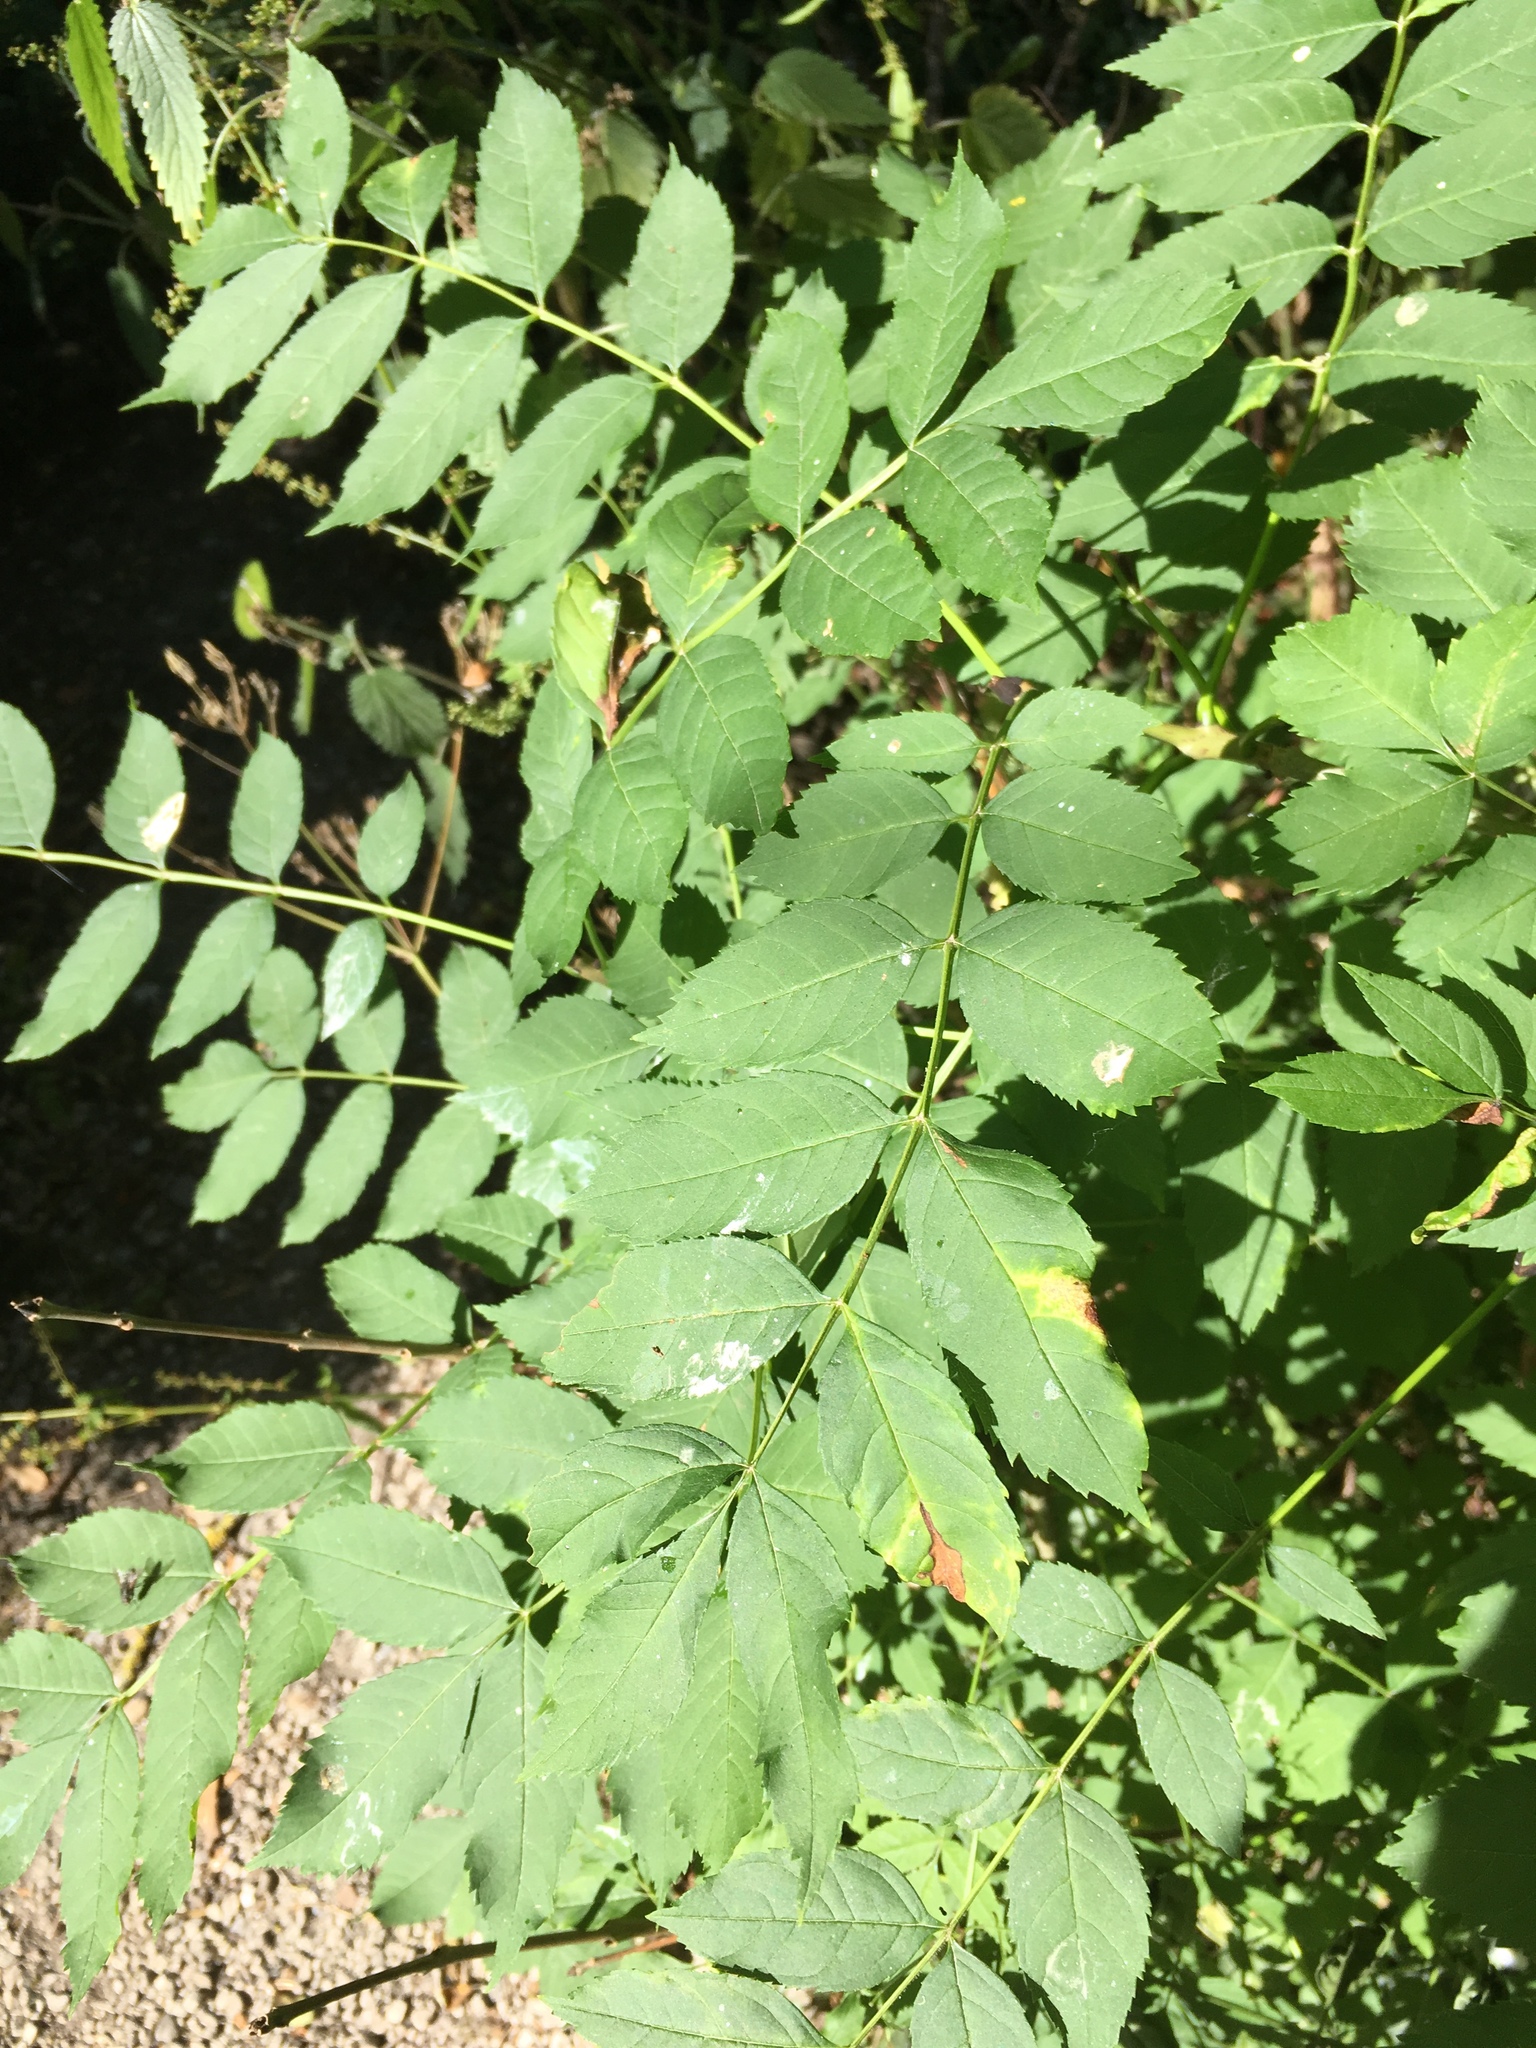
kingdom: Plantae
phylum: Tracheophyta
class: Magnoliopsida
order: Lamiales
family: Oleaceae
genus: Fraxinus
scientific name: Fraxinus excelsior
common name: European ash
